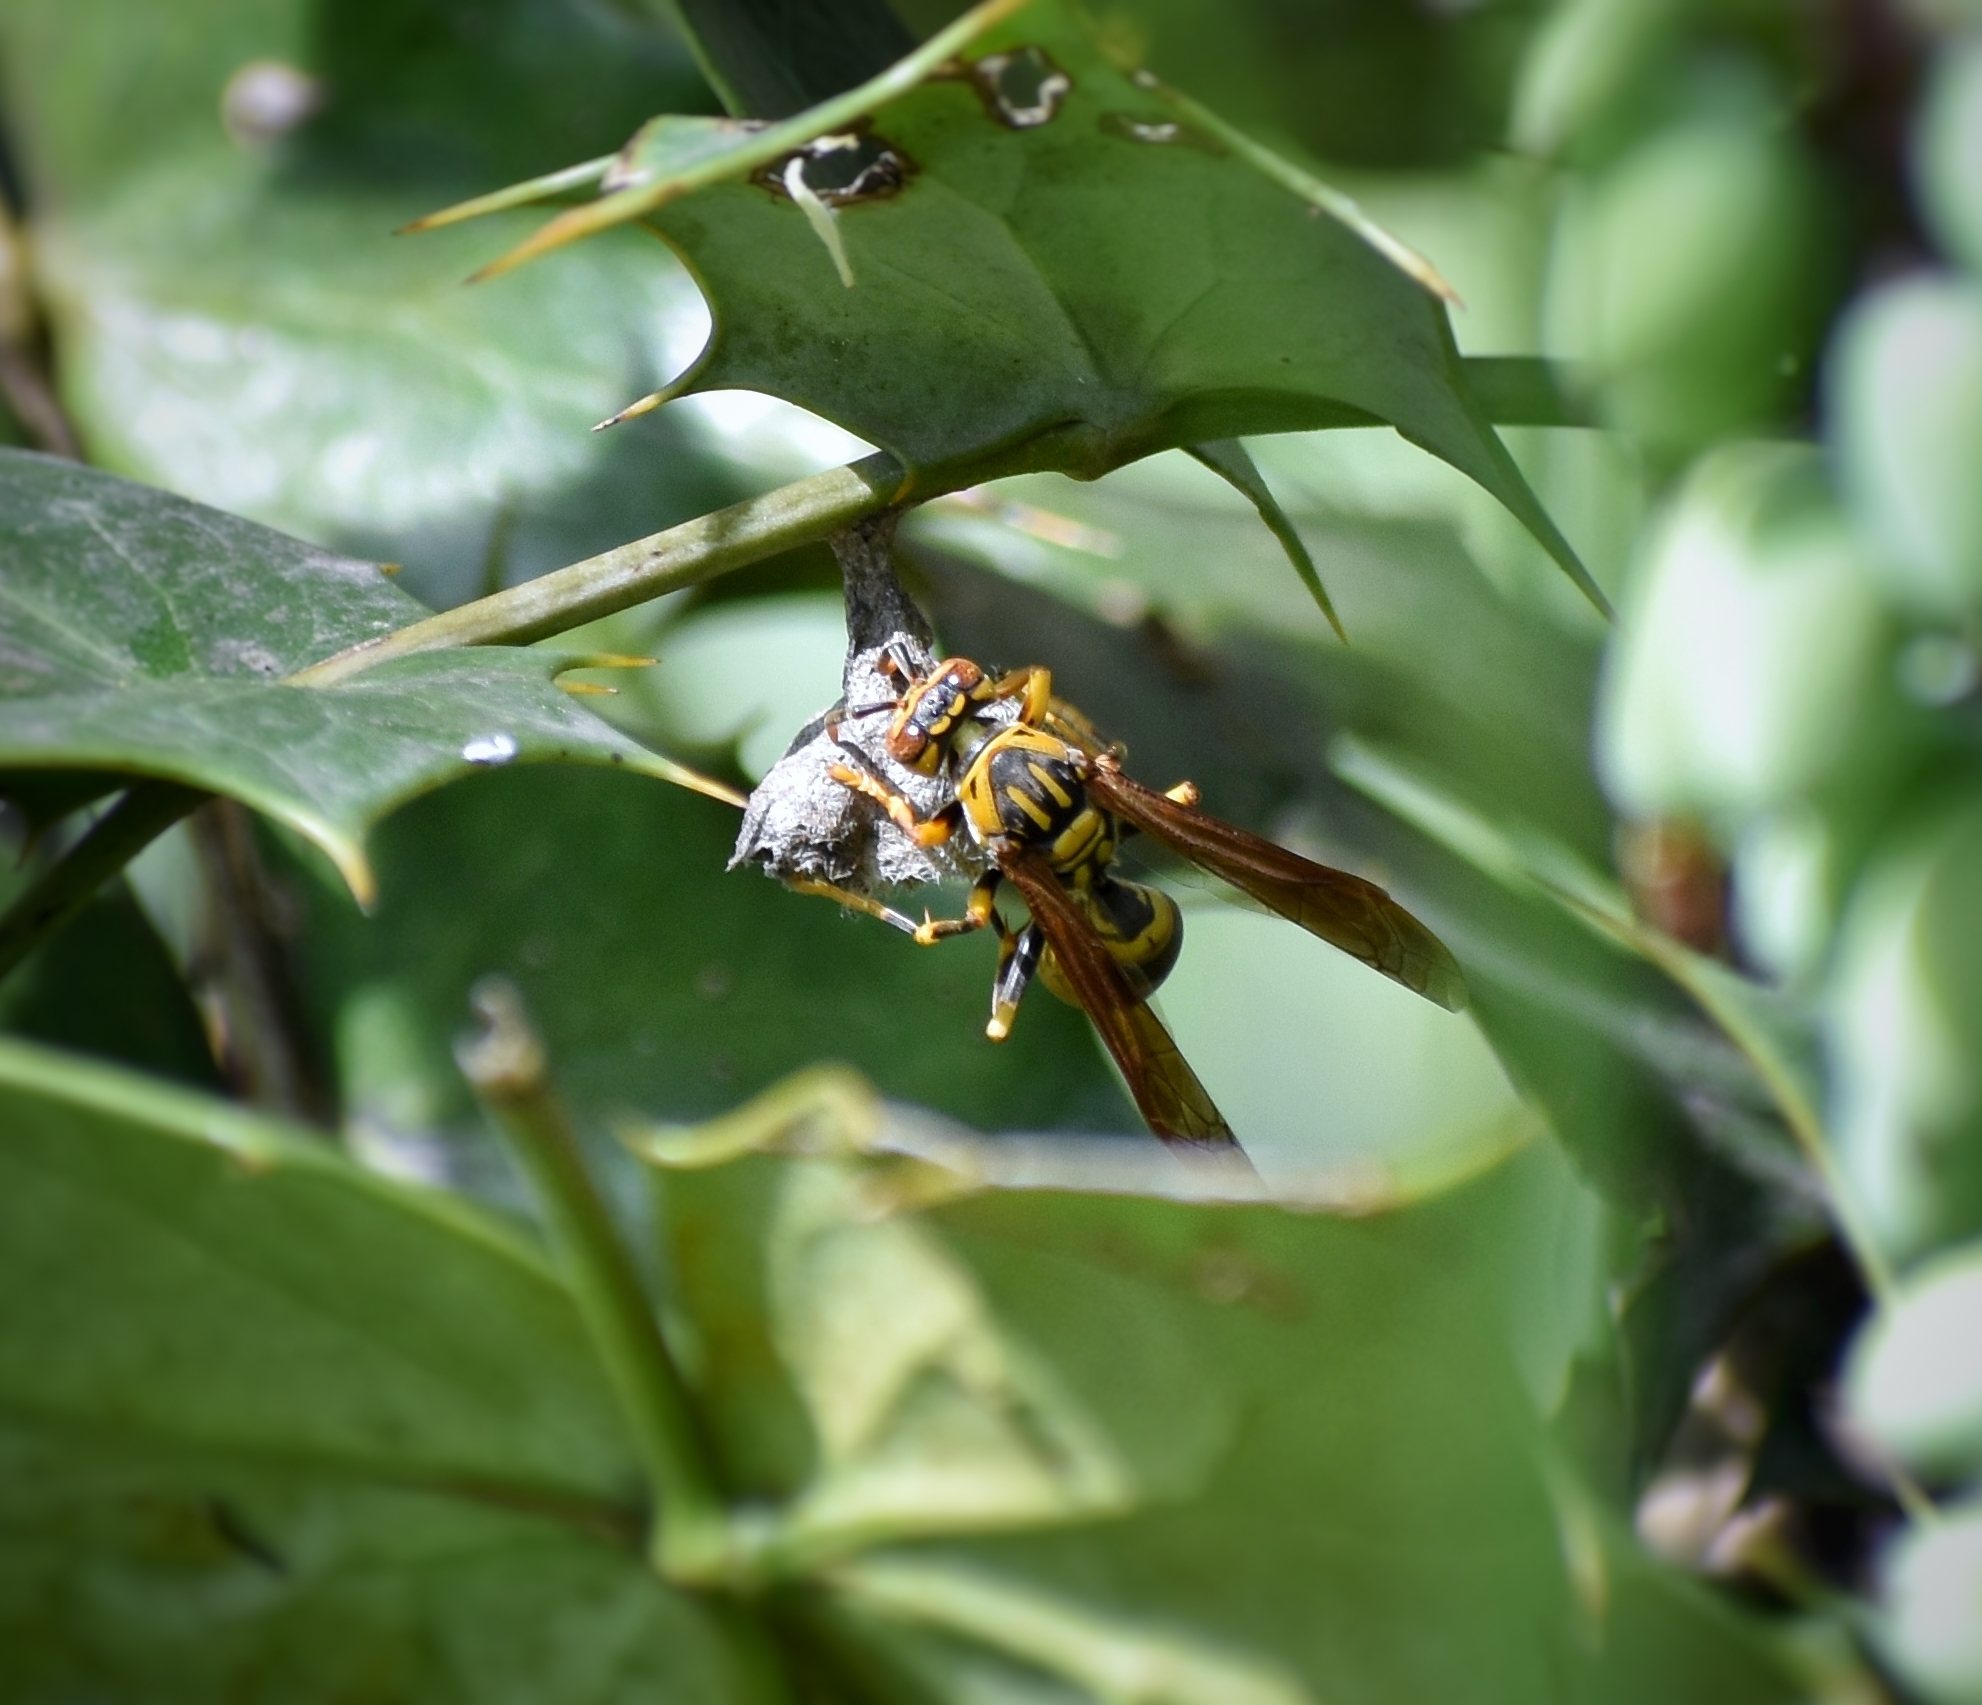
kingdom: Animalia
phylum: Arthropoda
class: Insecta
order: Hymenoptera
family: Eumenidae
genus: Polistes
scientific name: Polistes rothneyi
